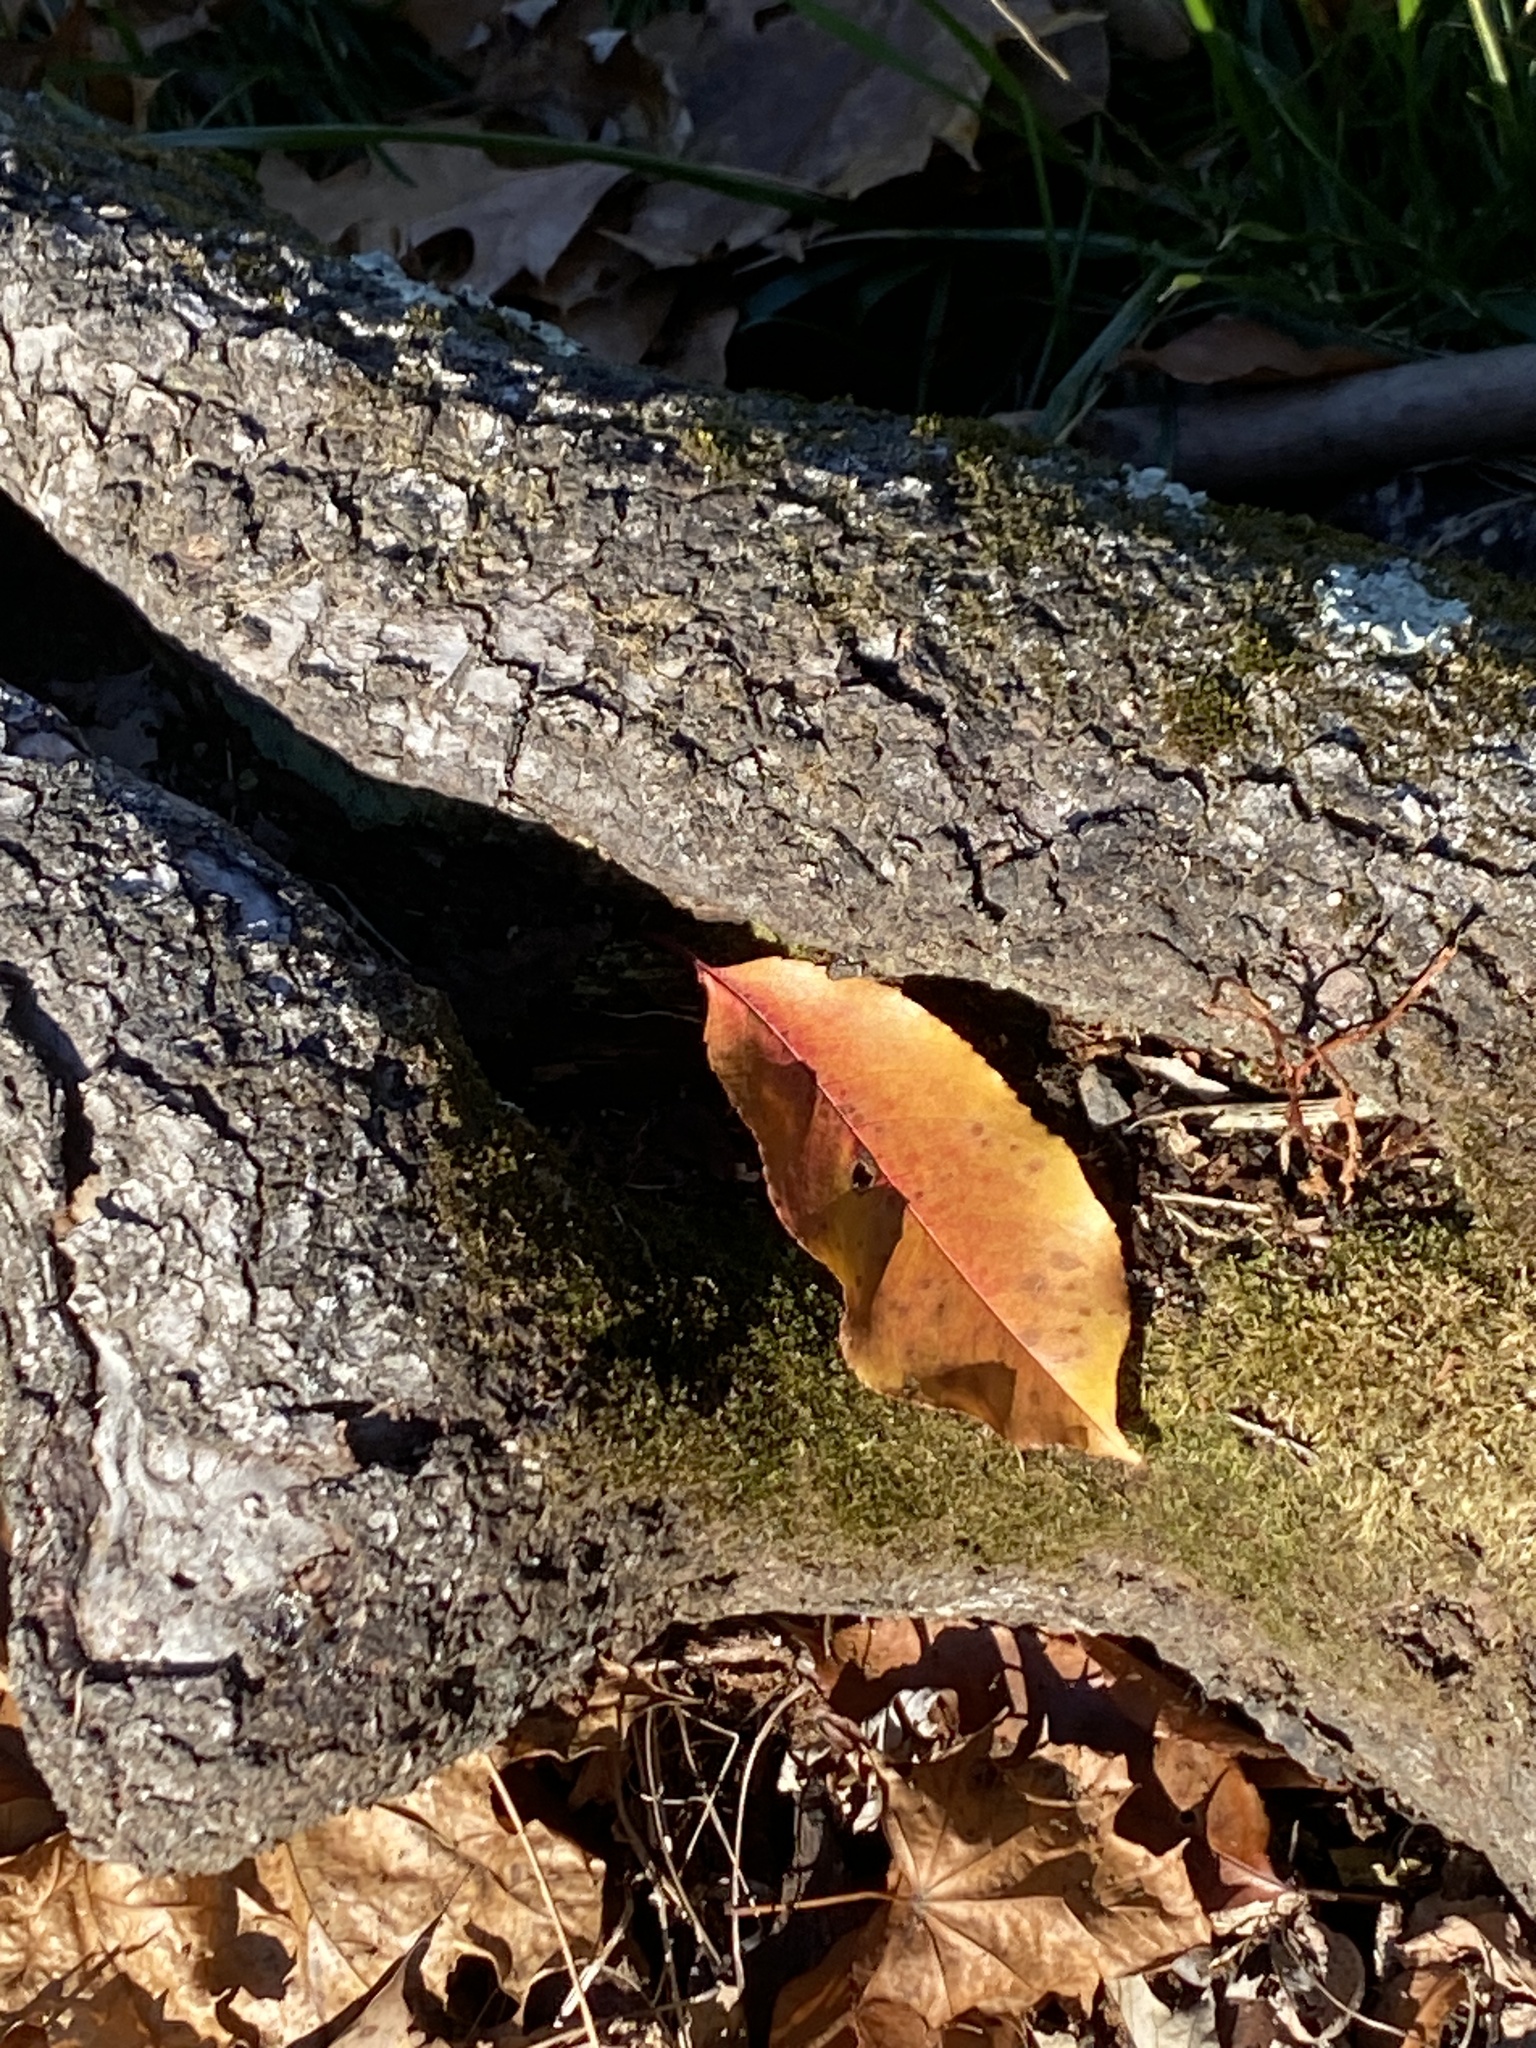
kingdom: Plantae
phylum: Tracheophyta
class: Magnoliopsida
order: Rosales
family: Rosaceae
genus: Prunus
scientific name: Prunus serotina
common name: Black cherry
